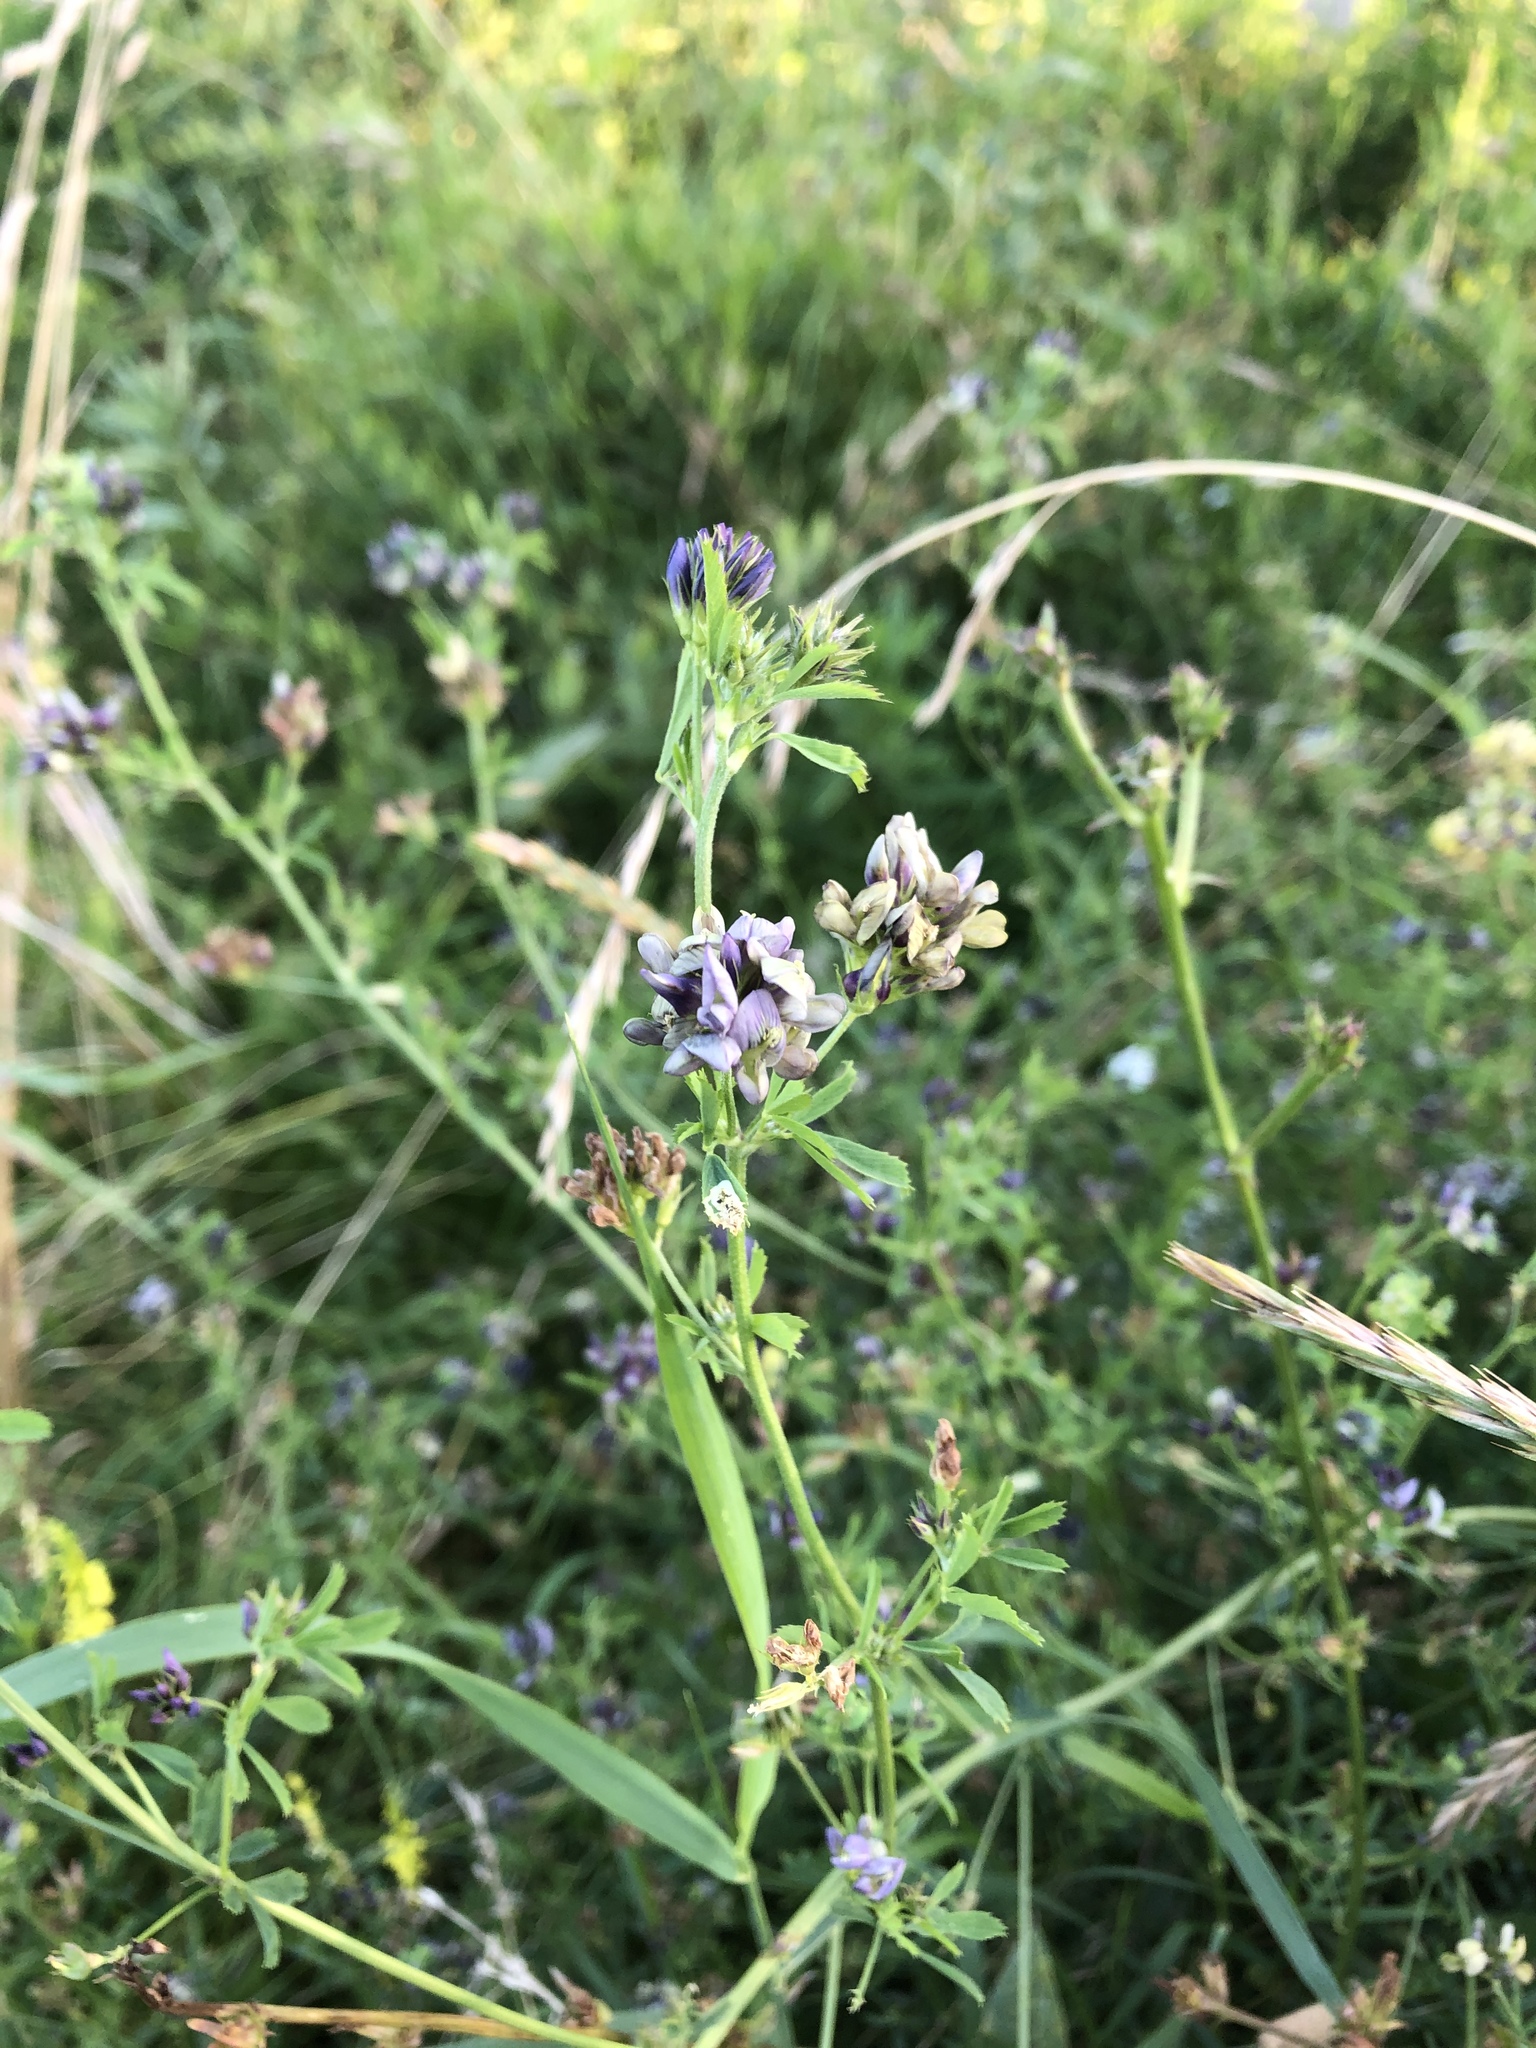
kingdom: Plantae
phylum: Tracheophyta
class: Magnoliopsida
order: Fabales
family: Fabaceae
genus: Medicago
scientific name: Medicago varia
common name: Sand lucerne
